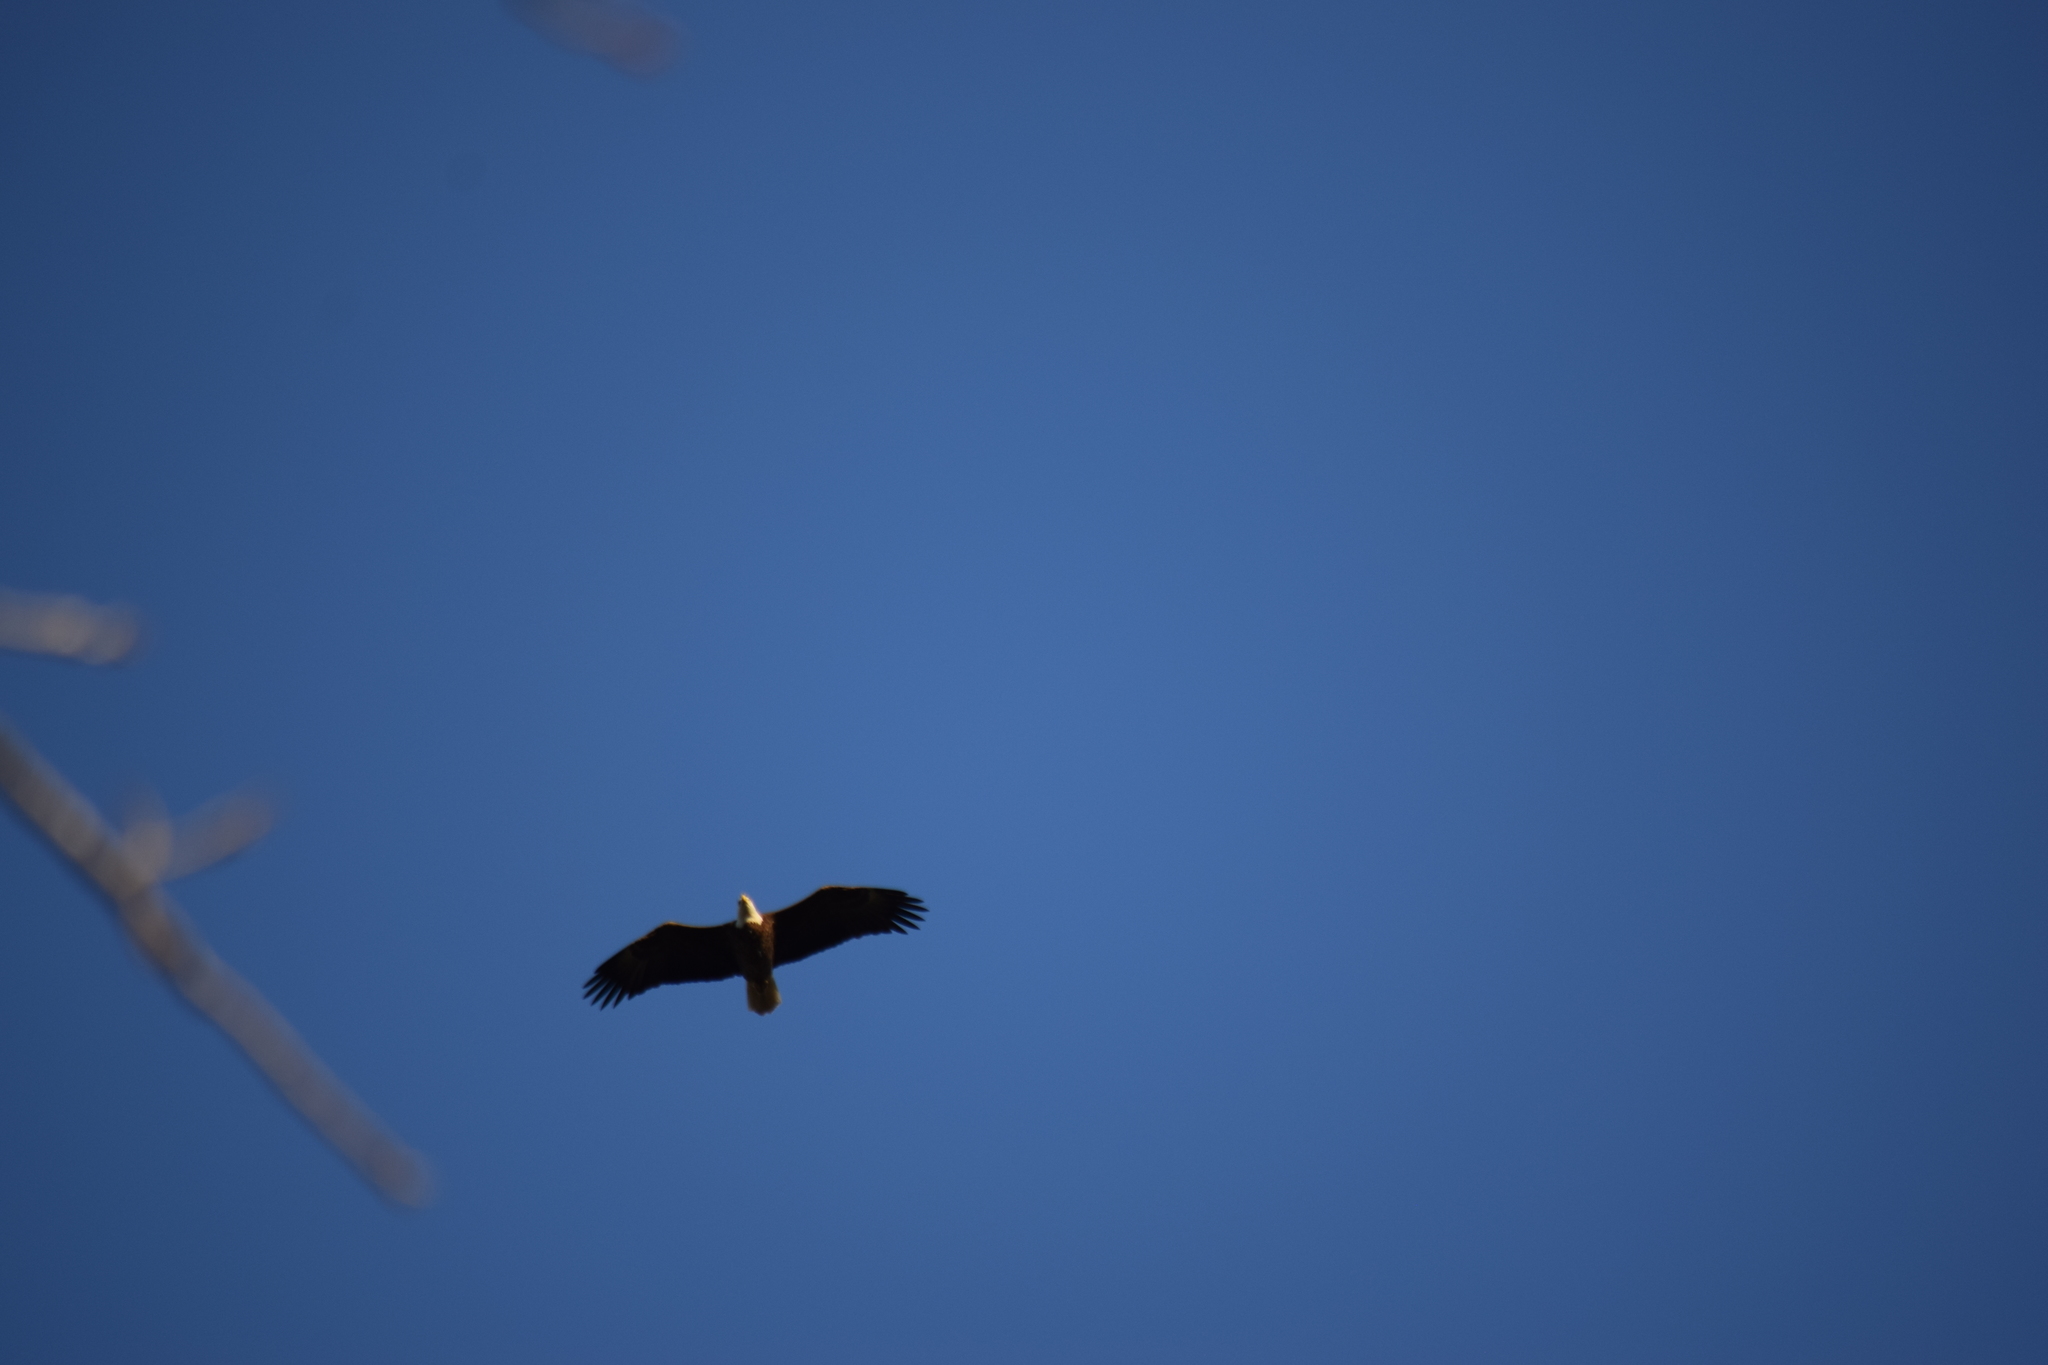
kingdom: Animalia
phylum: Chordata
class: Aves
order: Accipitriformes
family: Accipitridae
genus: Haliaeetus
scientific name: Haliaeetus leucocephalus
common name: Bald eagle
